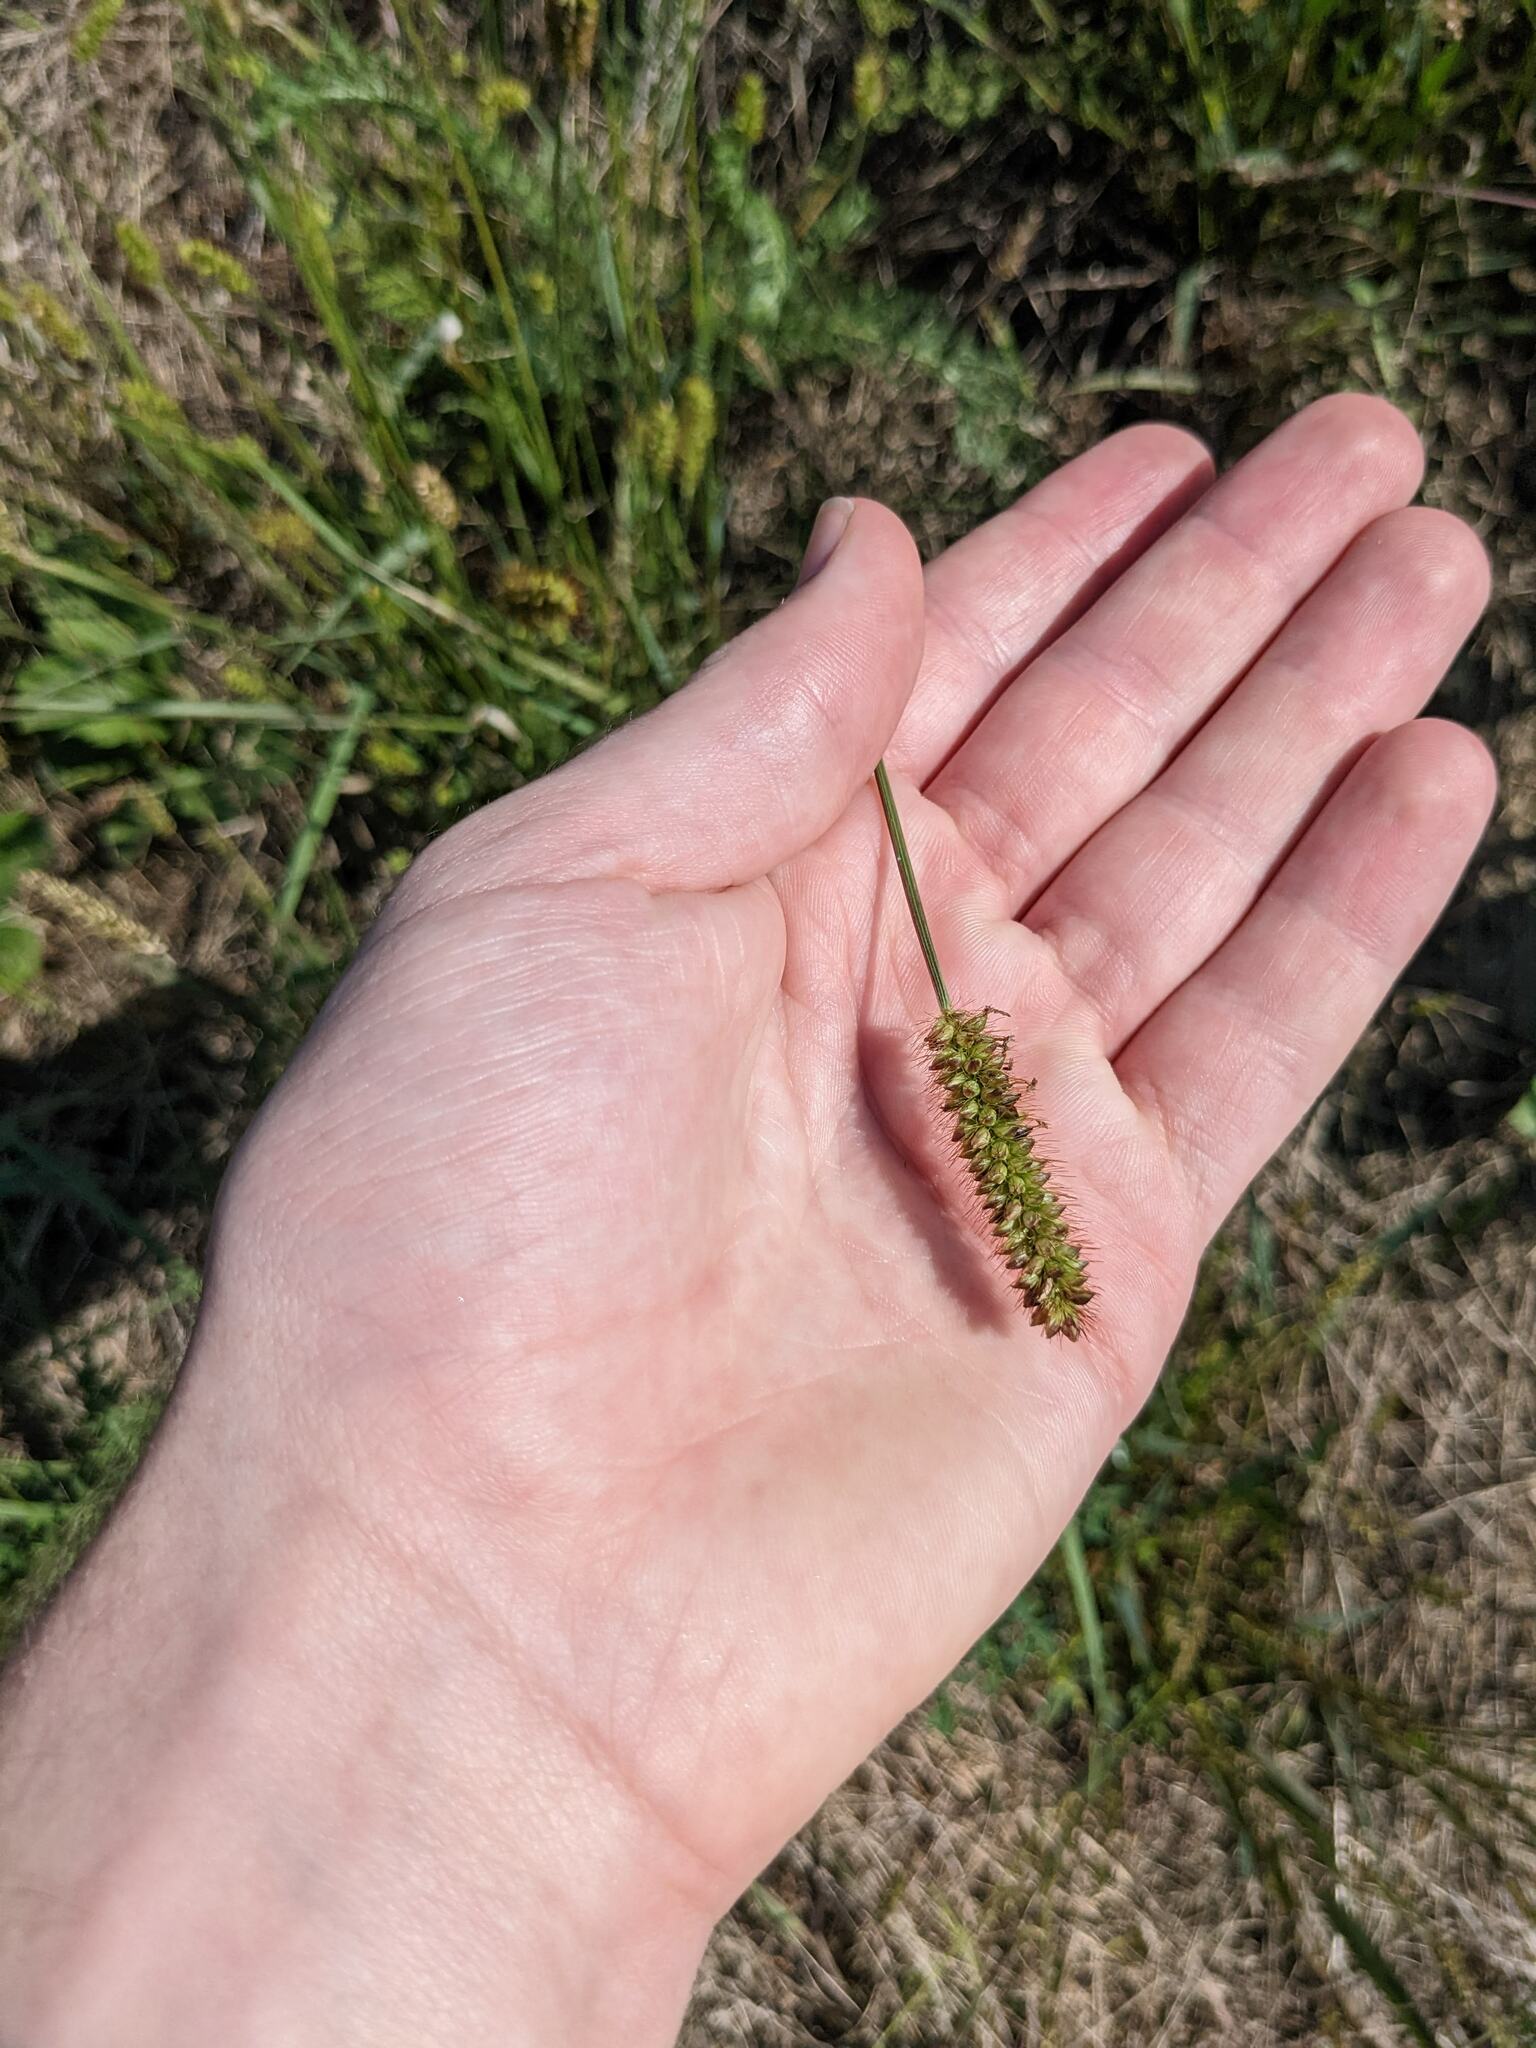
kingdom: Plantae
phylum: Tracheophyta
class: Liliopsida
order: Poales
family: Poaceae
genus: Setaria
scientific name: Setaria pumila
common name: Yellow bristle-grass
